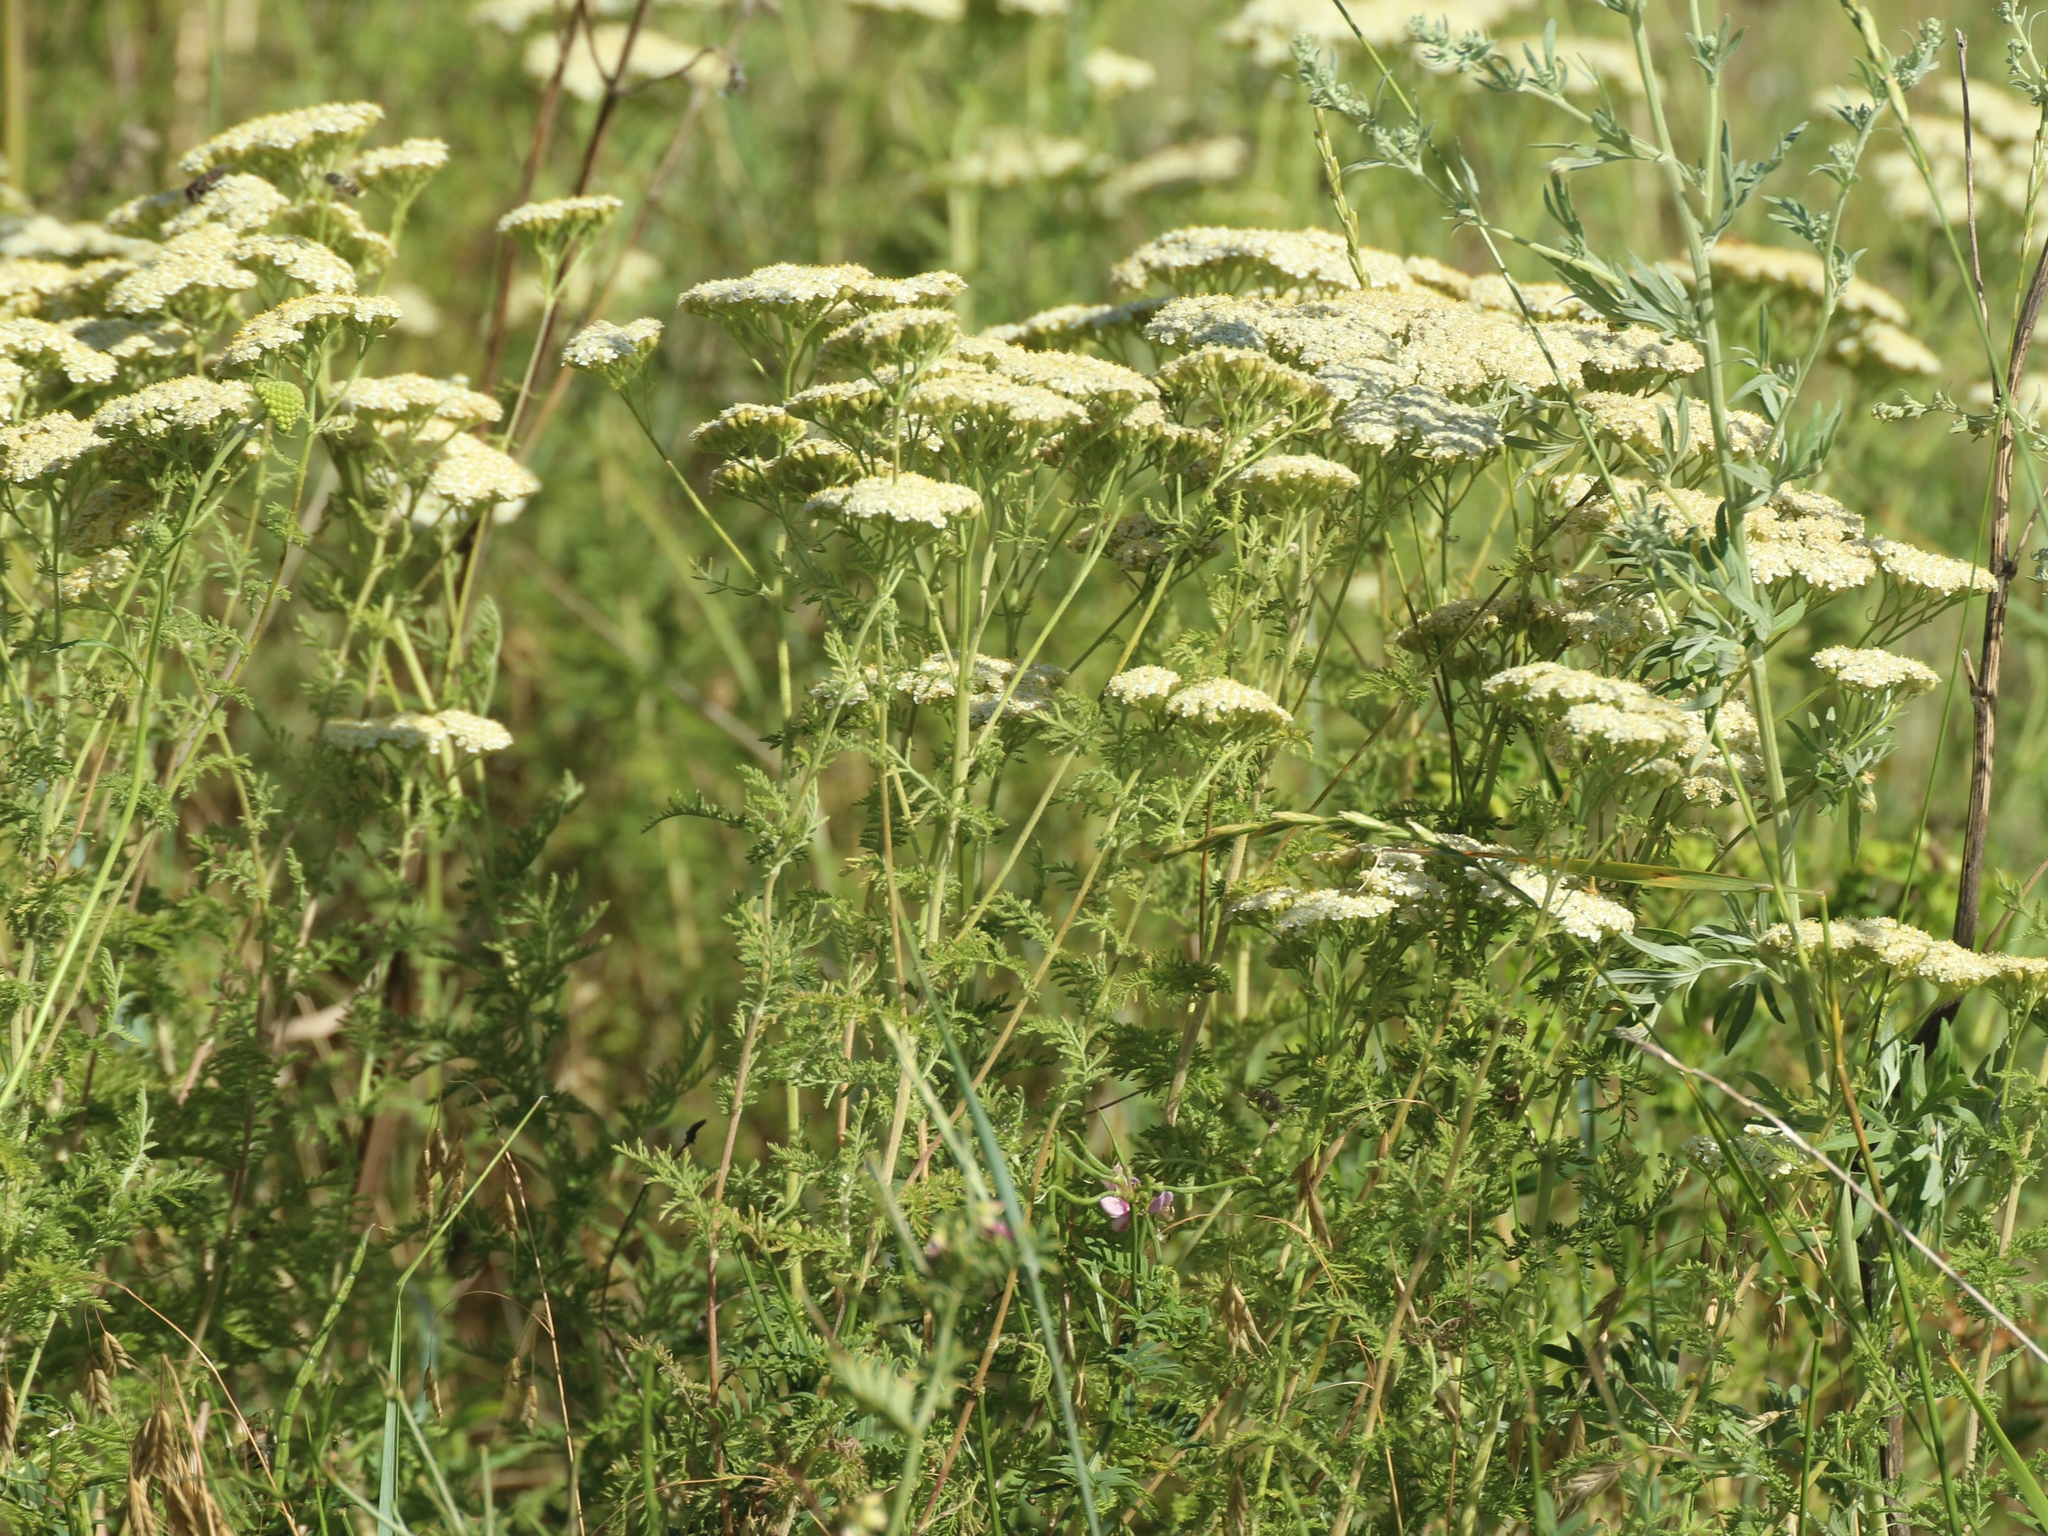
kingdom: Plantae
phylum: Tracheophyta
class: Magnoliopsida
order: Asterales
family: Asteraceae
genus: Achillea
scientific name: Achillea nobilis
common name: Noble yarrow
